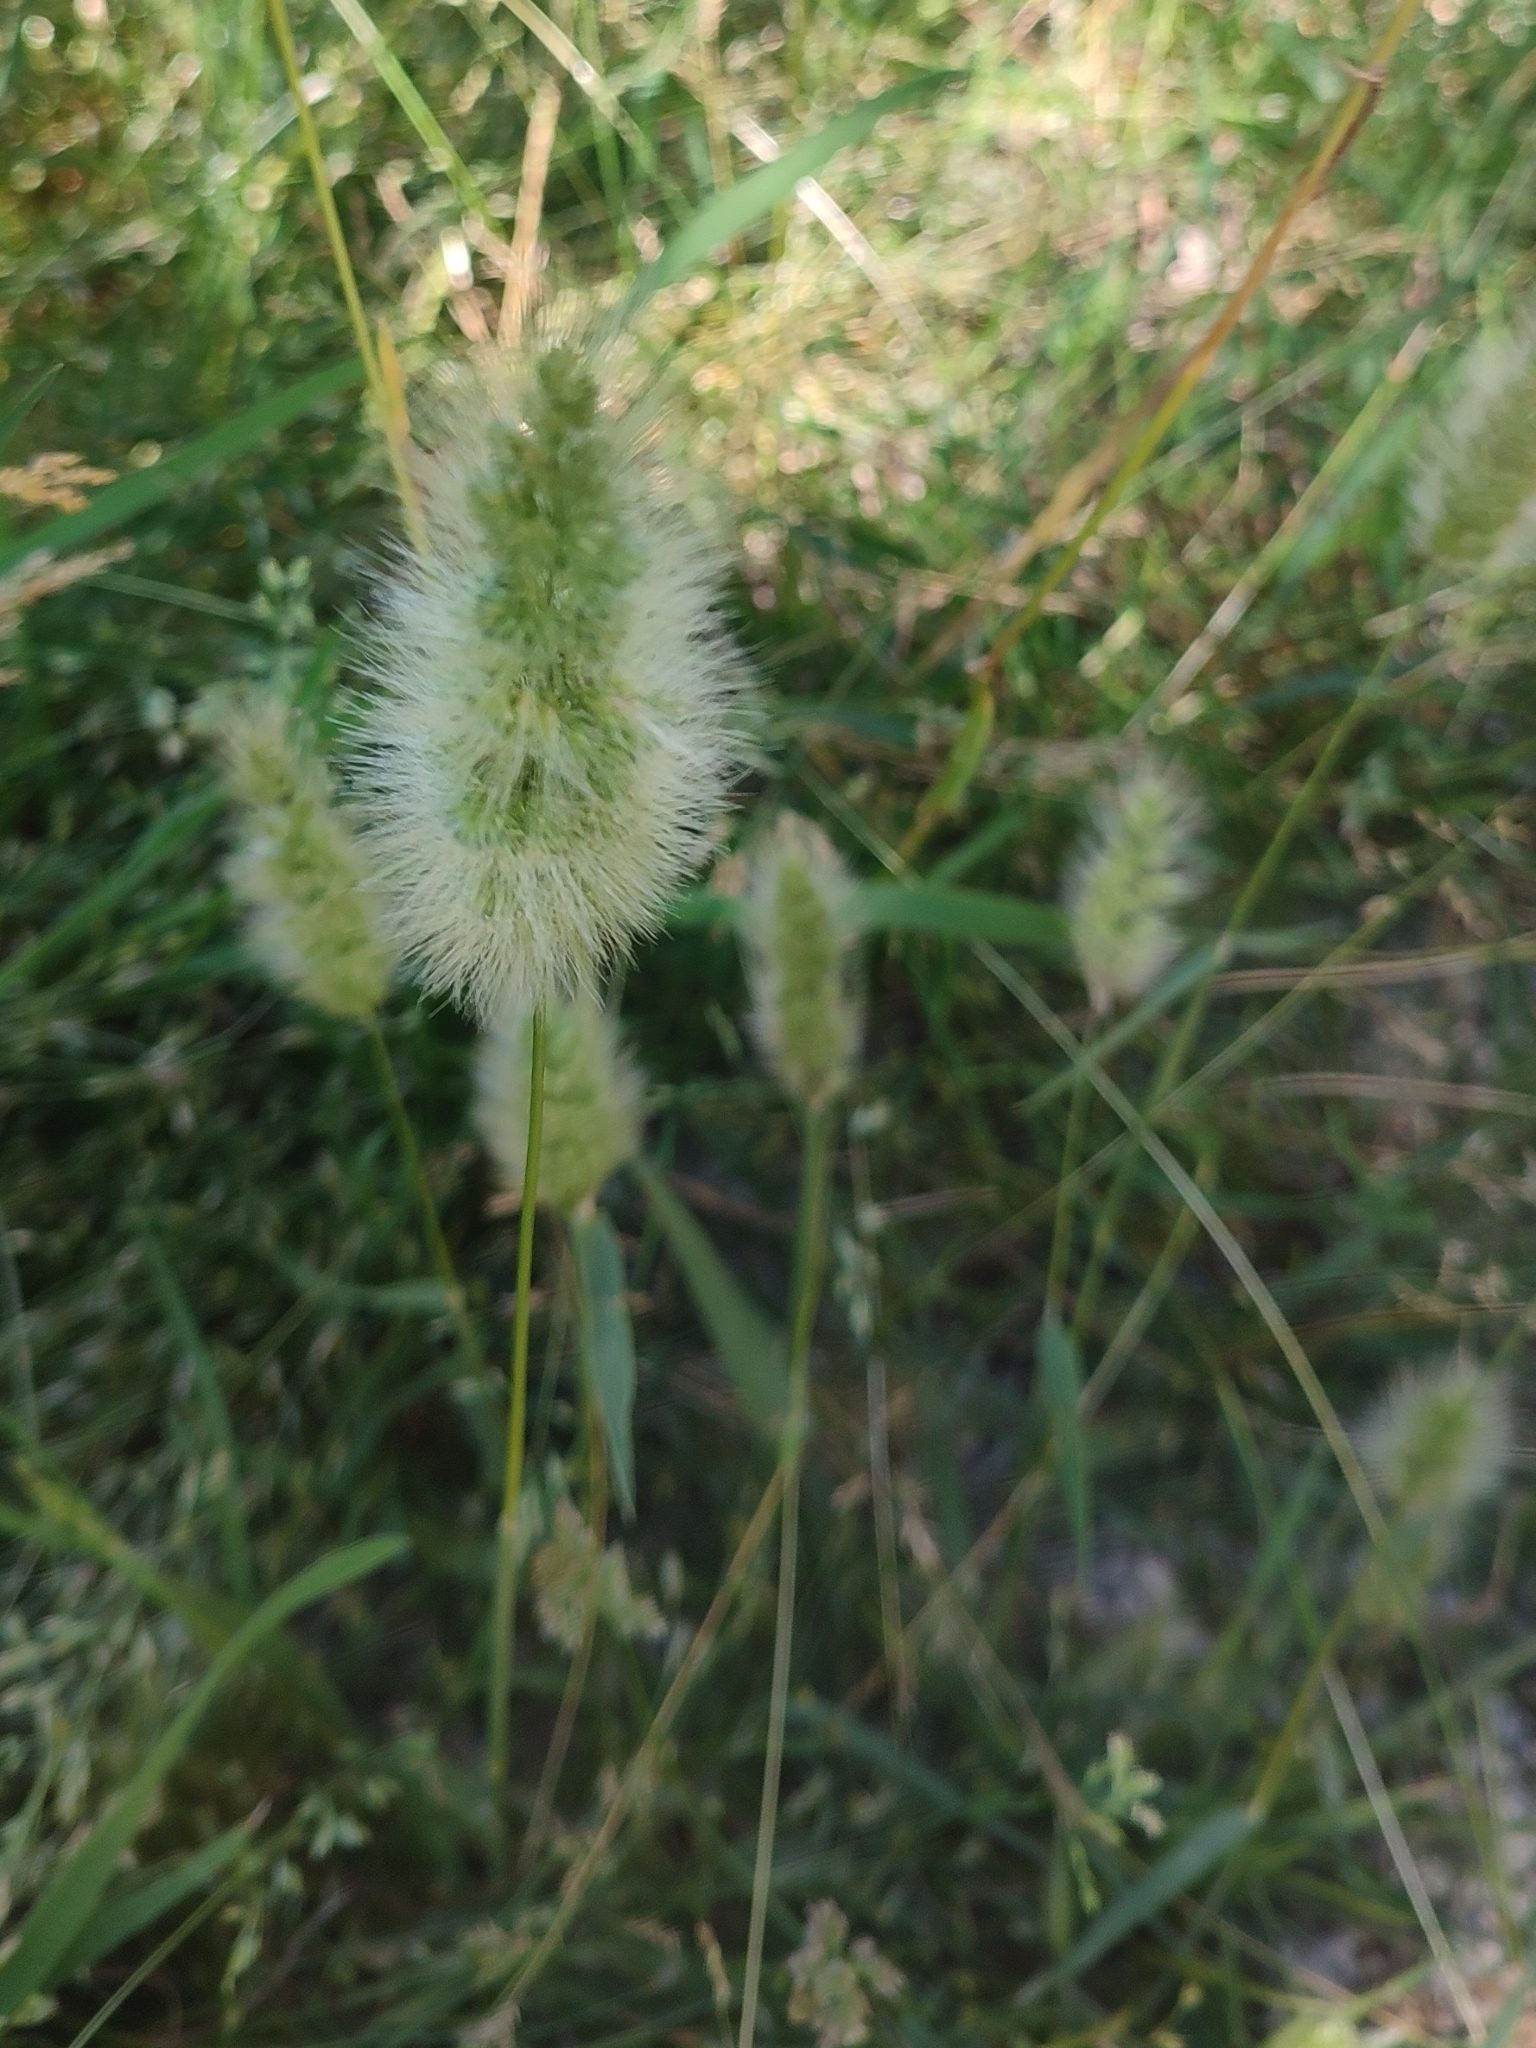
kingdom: Plantae
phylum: Tracheophyta
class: Liliopsida
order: Poales
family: Poaceae
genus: Polypogon
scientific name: Polypogon monspeliensis
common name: Annual rabbitsfoot grass
